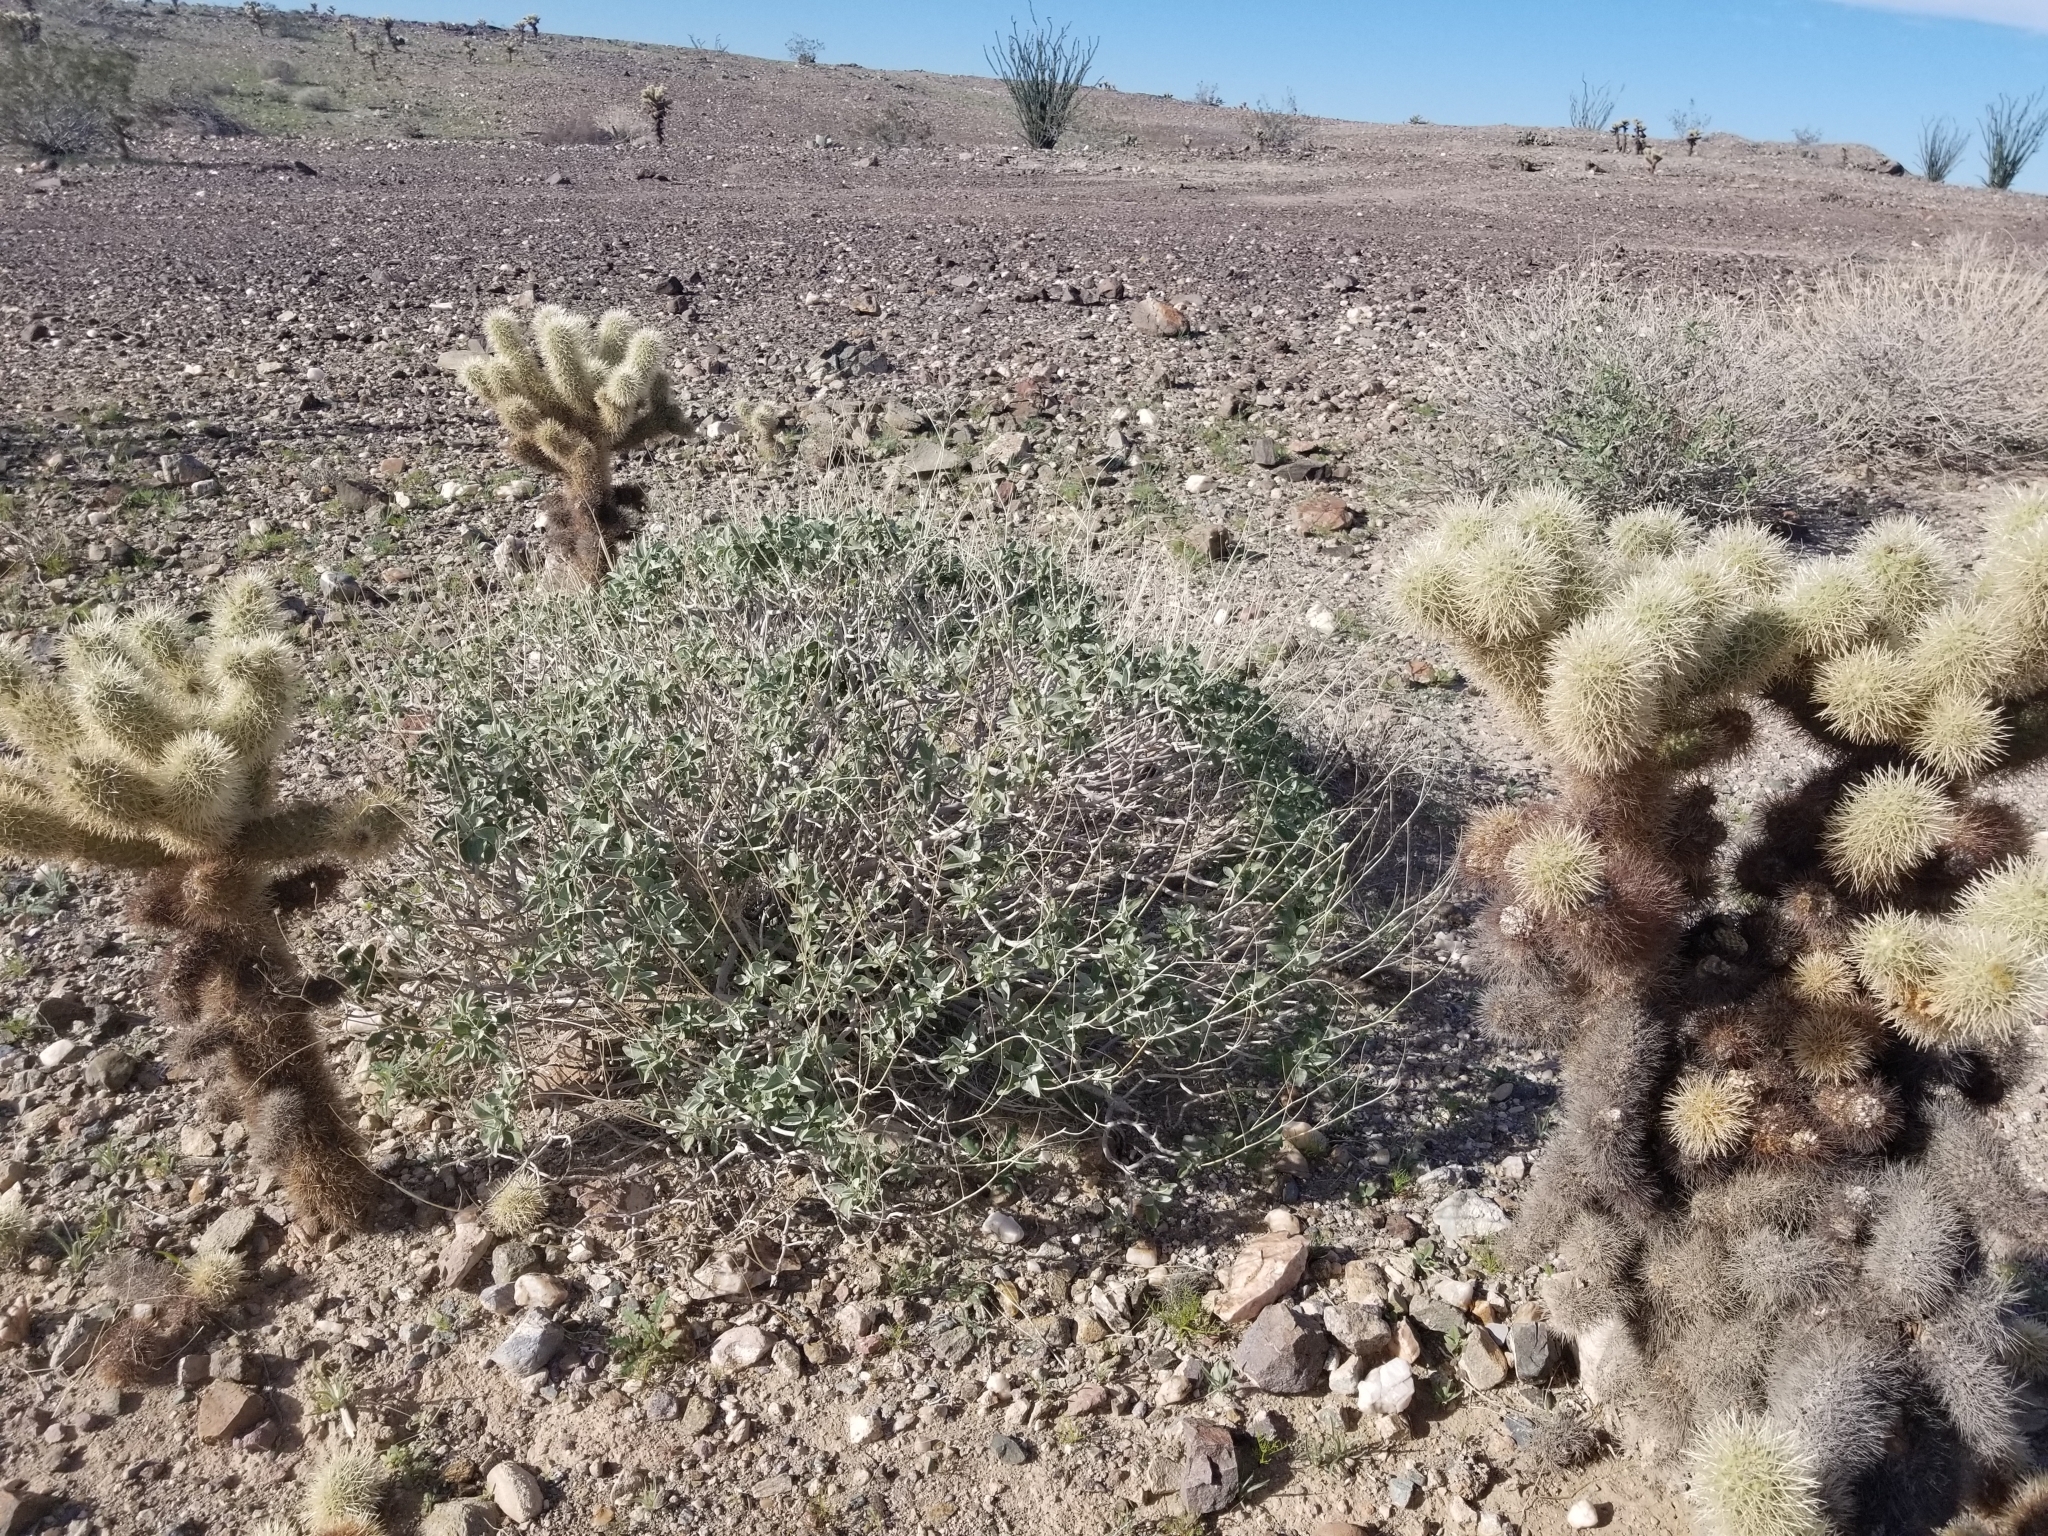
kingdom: Plantae
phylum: Tracheophyta
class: Magnoliopsida
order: Caryophyllales
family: Cactaceae
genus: Cylindropuntia
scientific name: Cylindropuntia fosbergii
